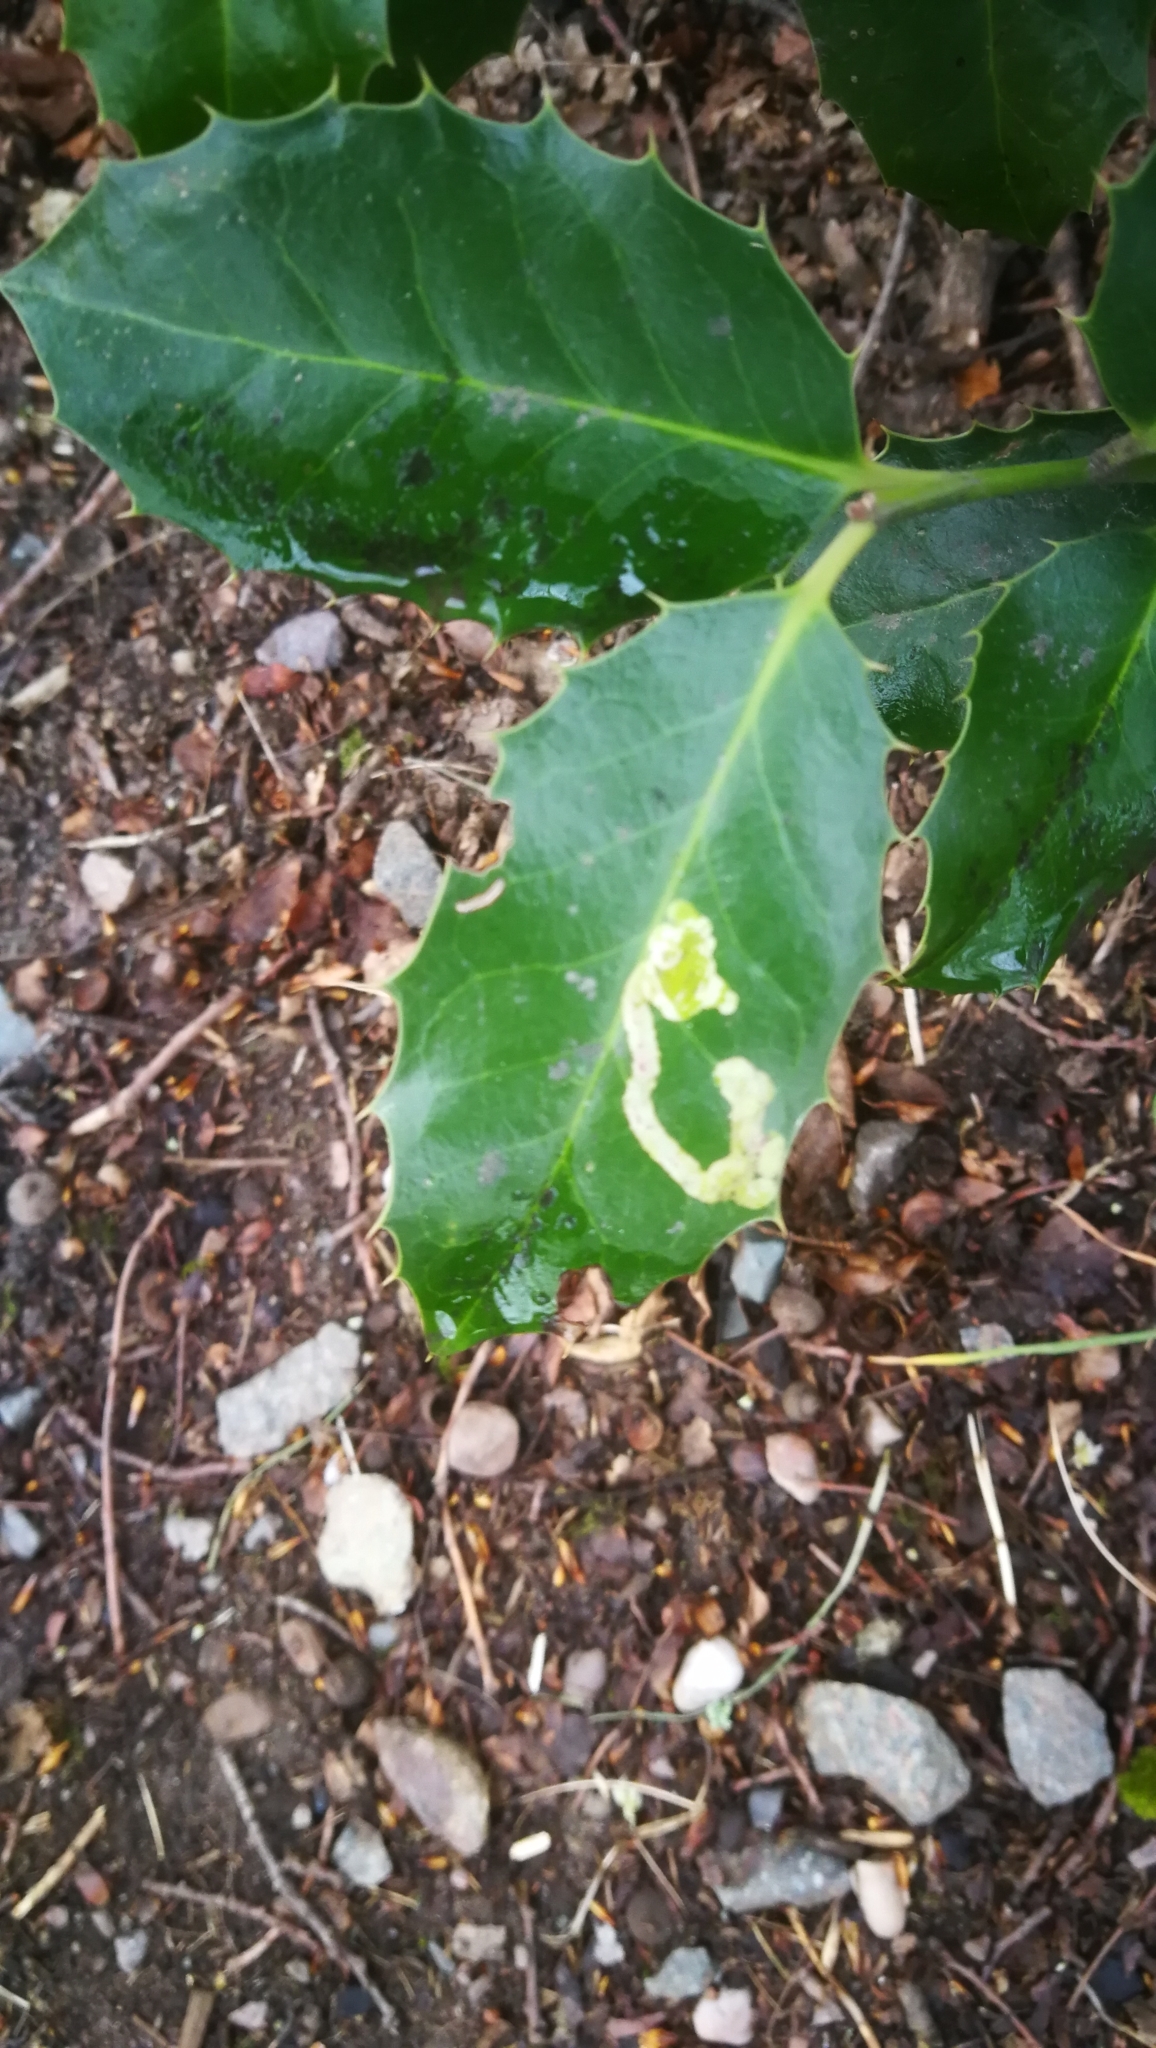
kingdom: Animalia
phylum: Arthropoda
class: Insecta
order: Diptera
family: Agromyzidae
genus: Phytomyza
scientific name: Phytomyza ilicis
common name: Holly leafminer
